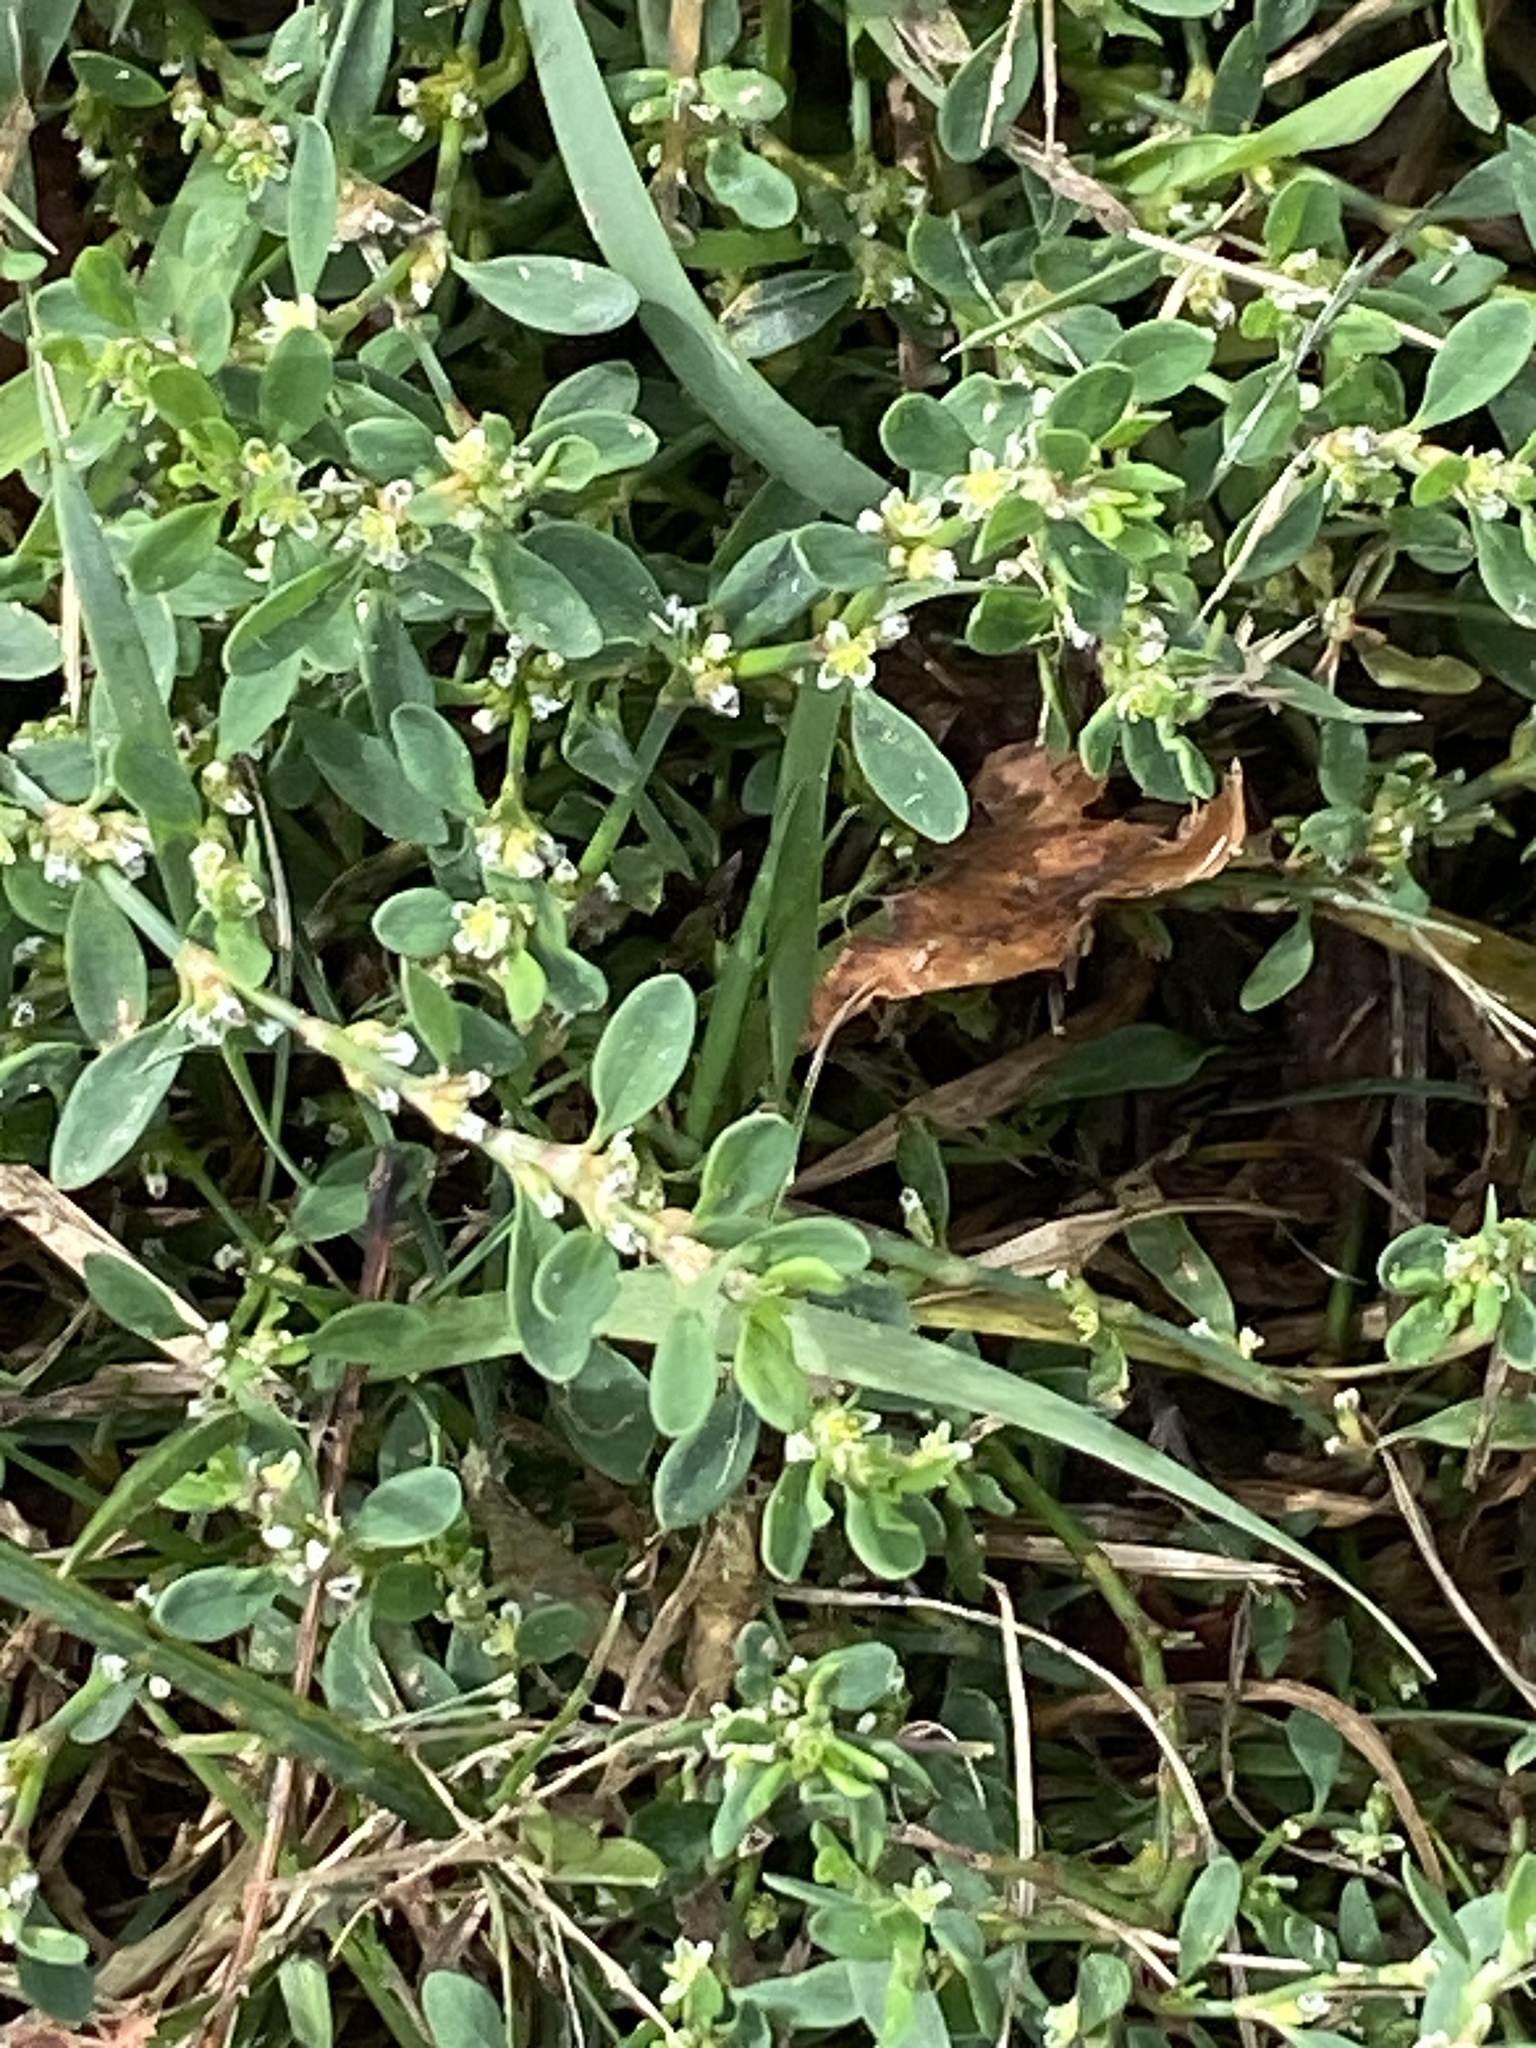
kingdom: Plantae
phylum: Tracheophyta
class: Magnoliopsida
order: Caryophyllales
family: Polygonaceae
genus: Polygonum
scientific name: Polygonum aviculare
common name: Prostrate knotweed
